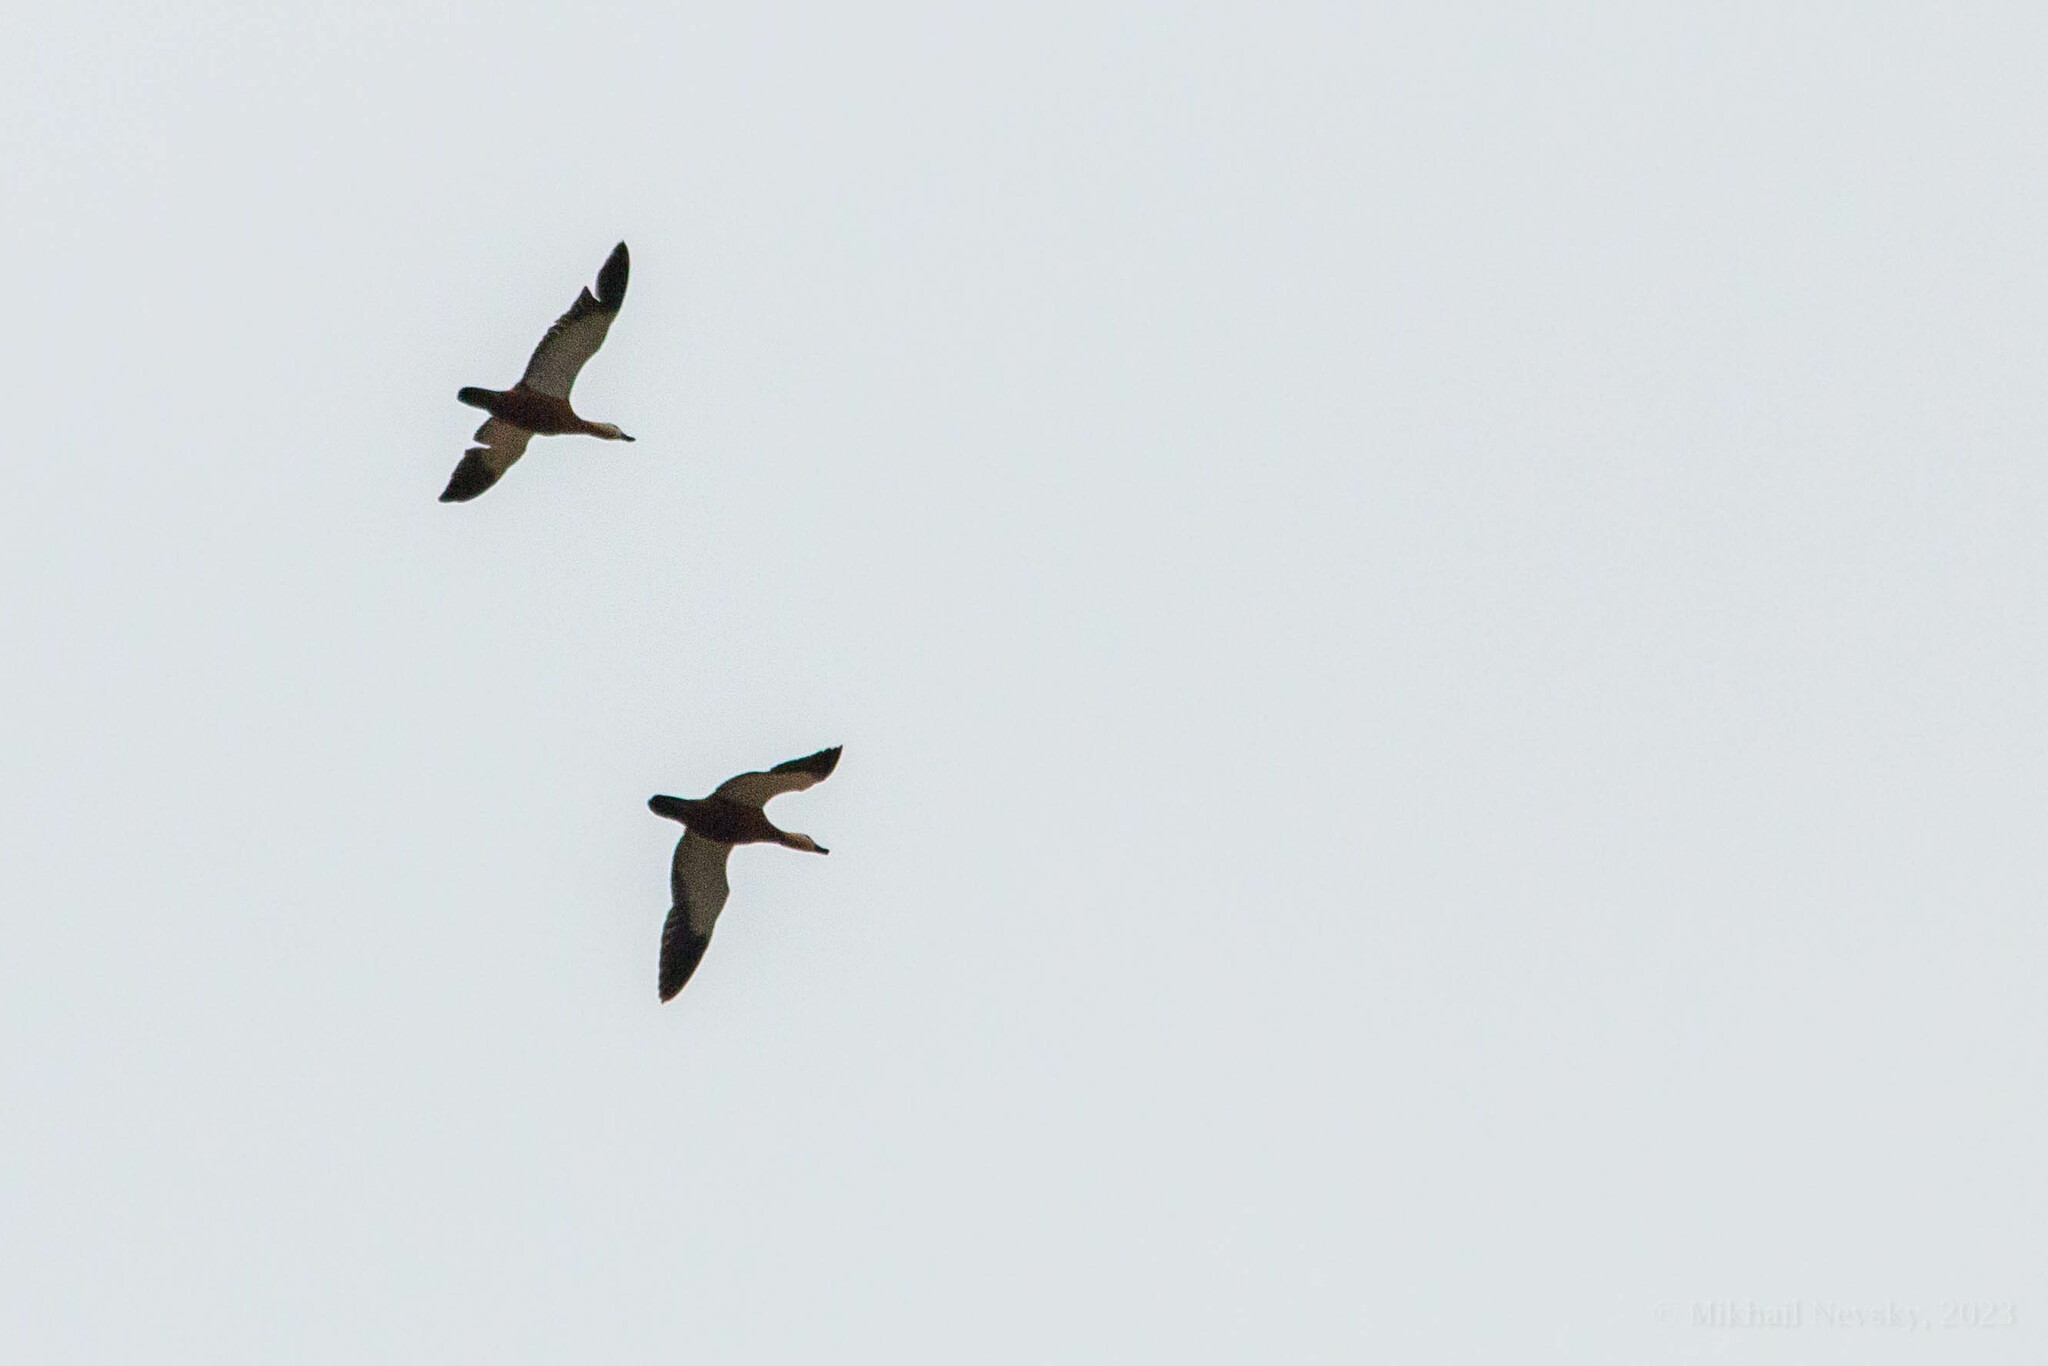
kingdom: Animalia
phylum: Chordata
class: Aves
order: Anseriformes
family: Anatidae
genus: Tadorna
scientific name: Tadorna ferruginea
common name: Ruddy shelduck
